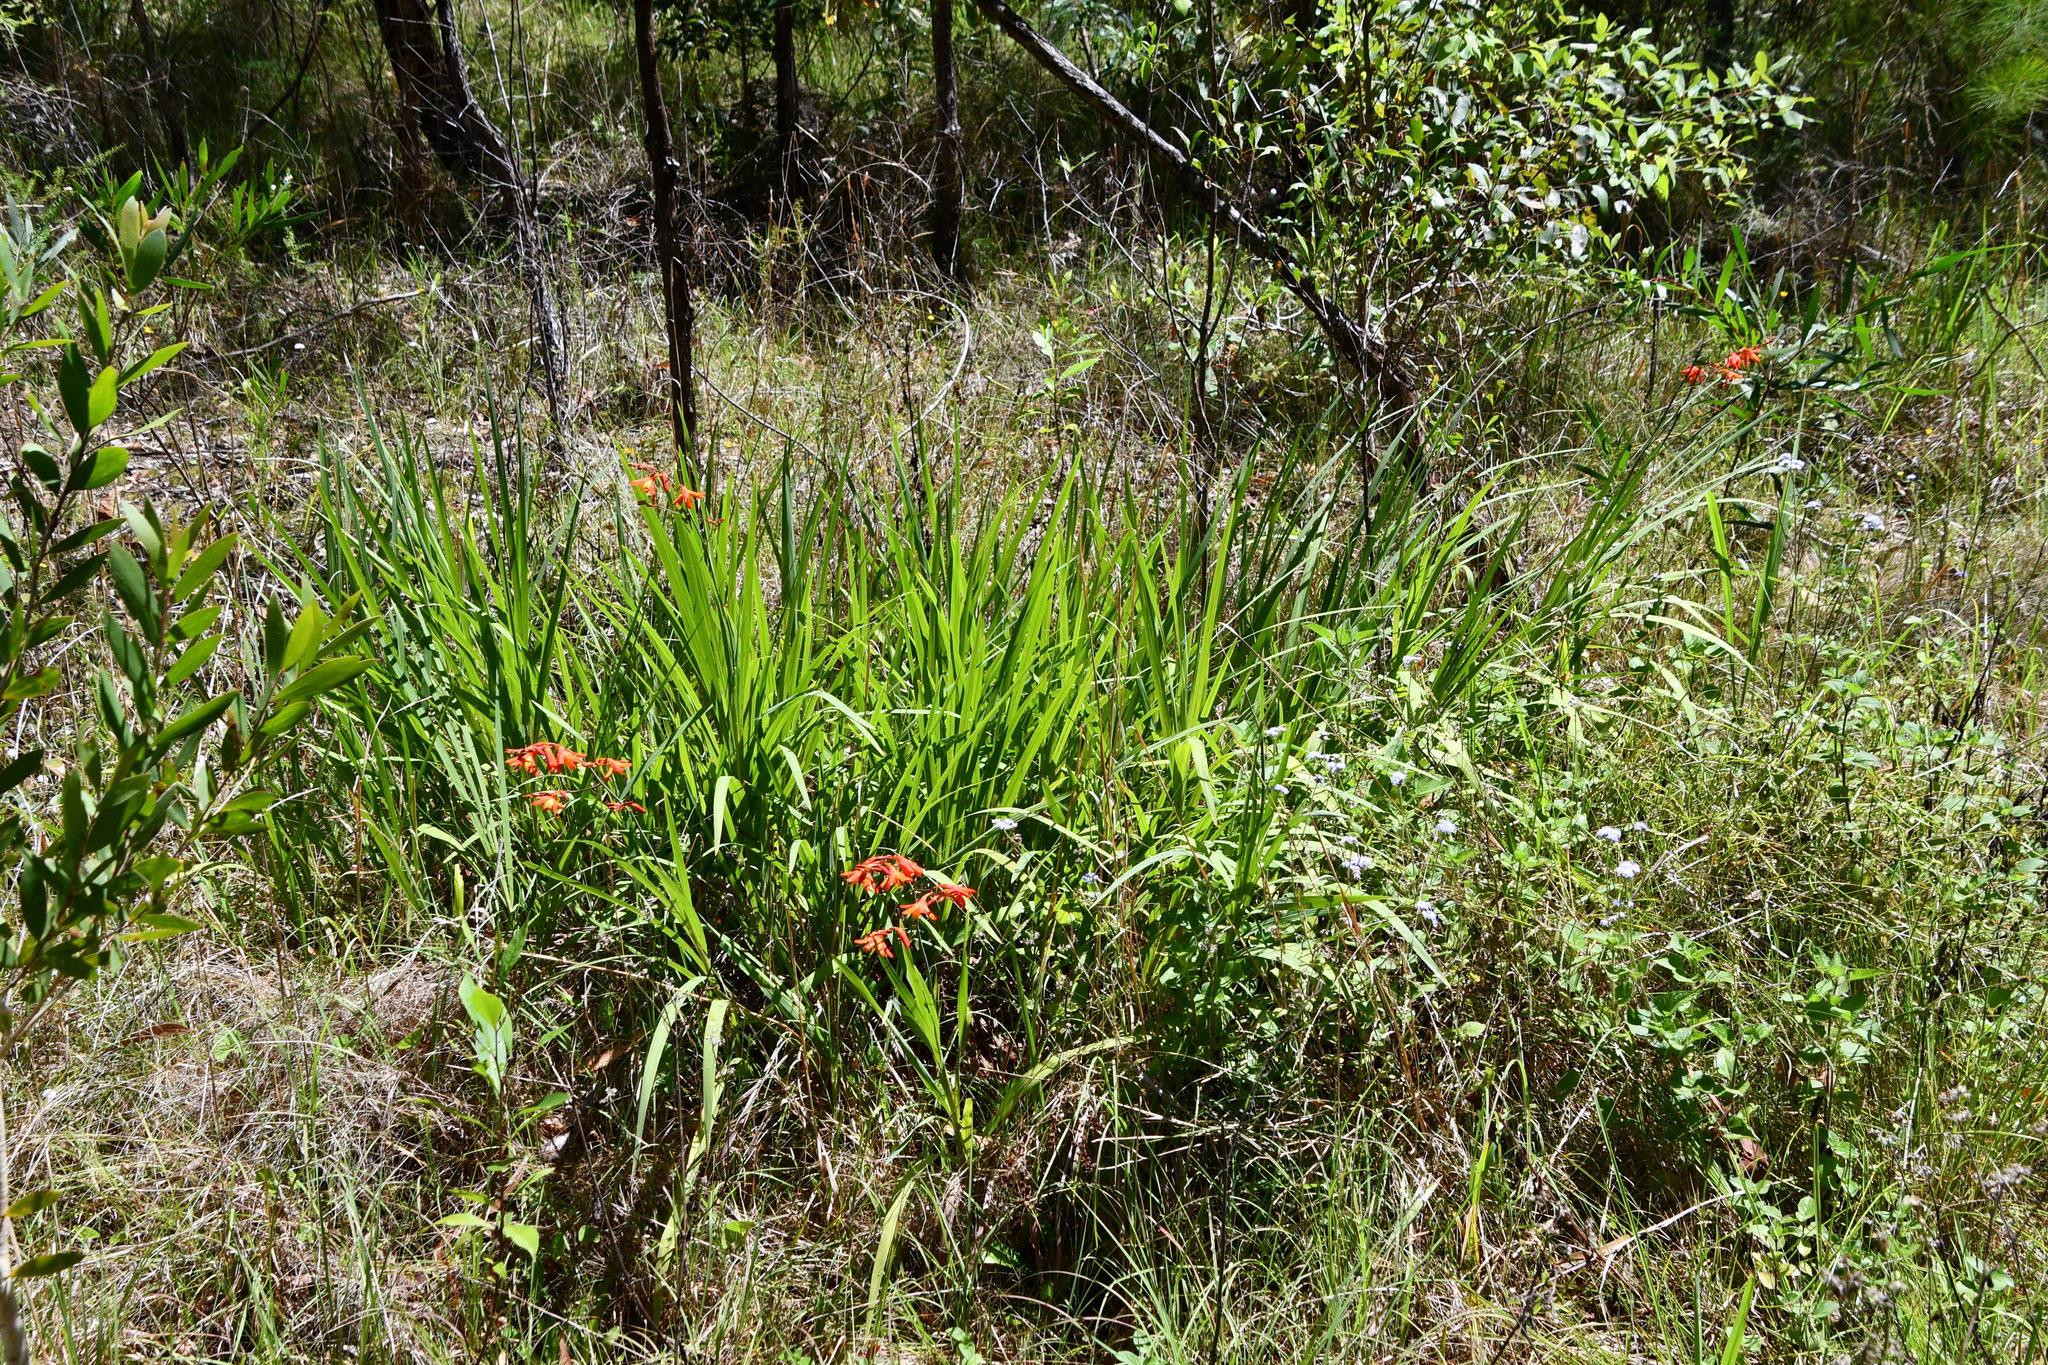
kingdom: Plantae
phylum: Tracheophyta
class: Liliopsida
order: Asparagales
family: Iridaceae
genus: Crocosmia
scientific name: Crocosmia crocosmiiflora
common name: Montbretia
